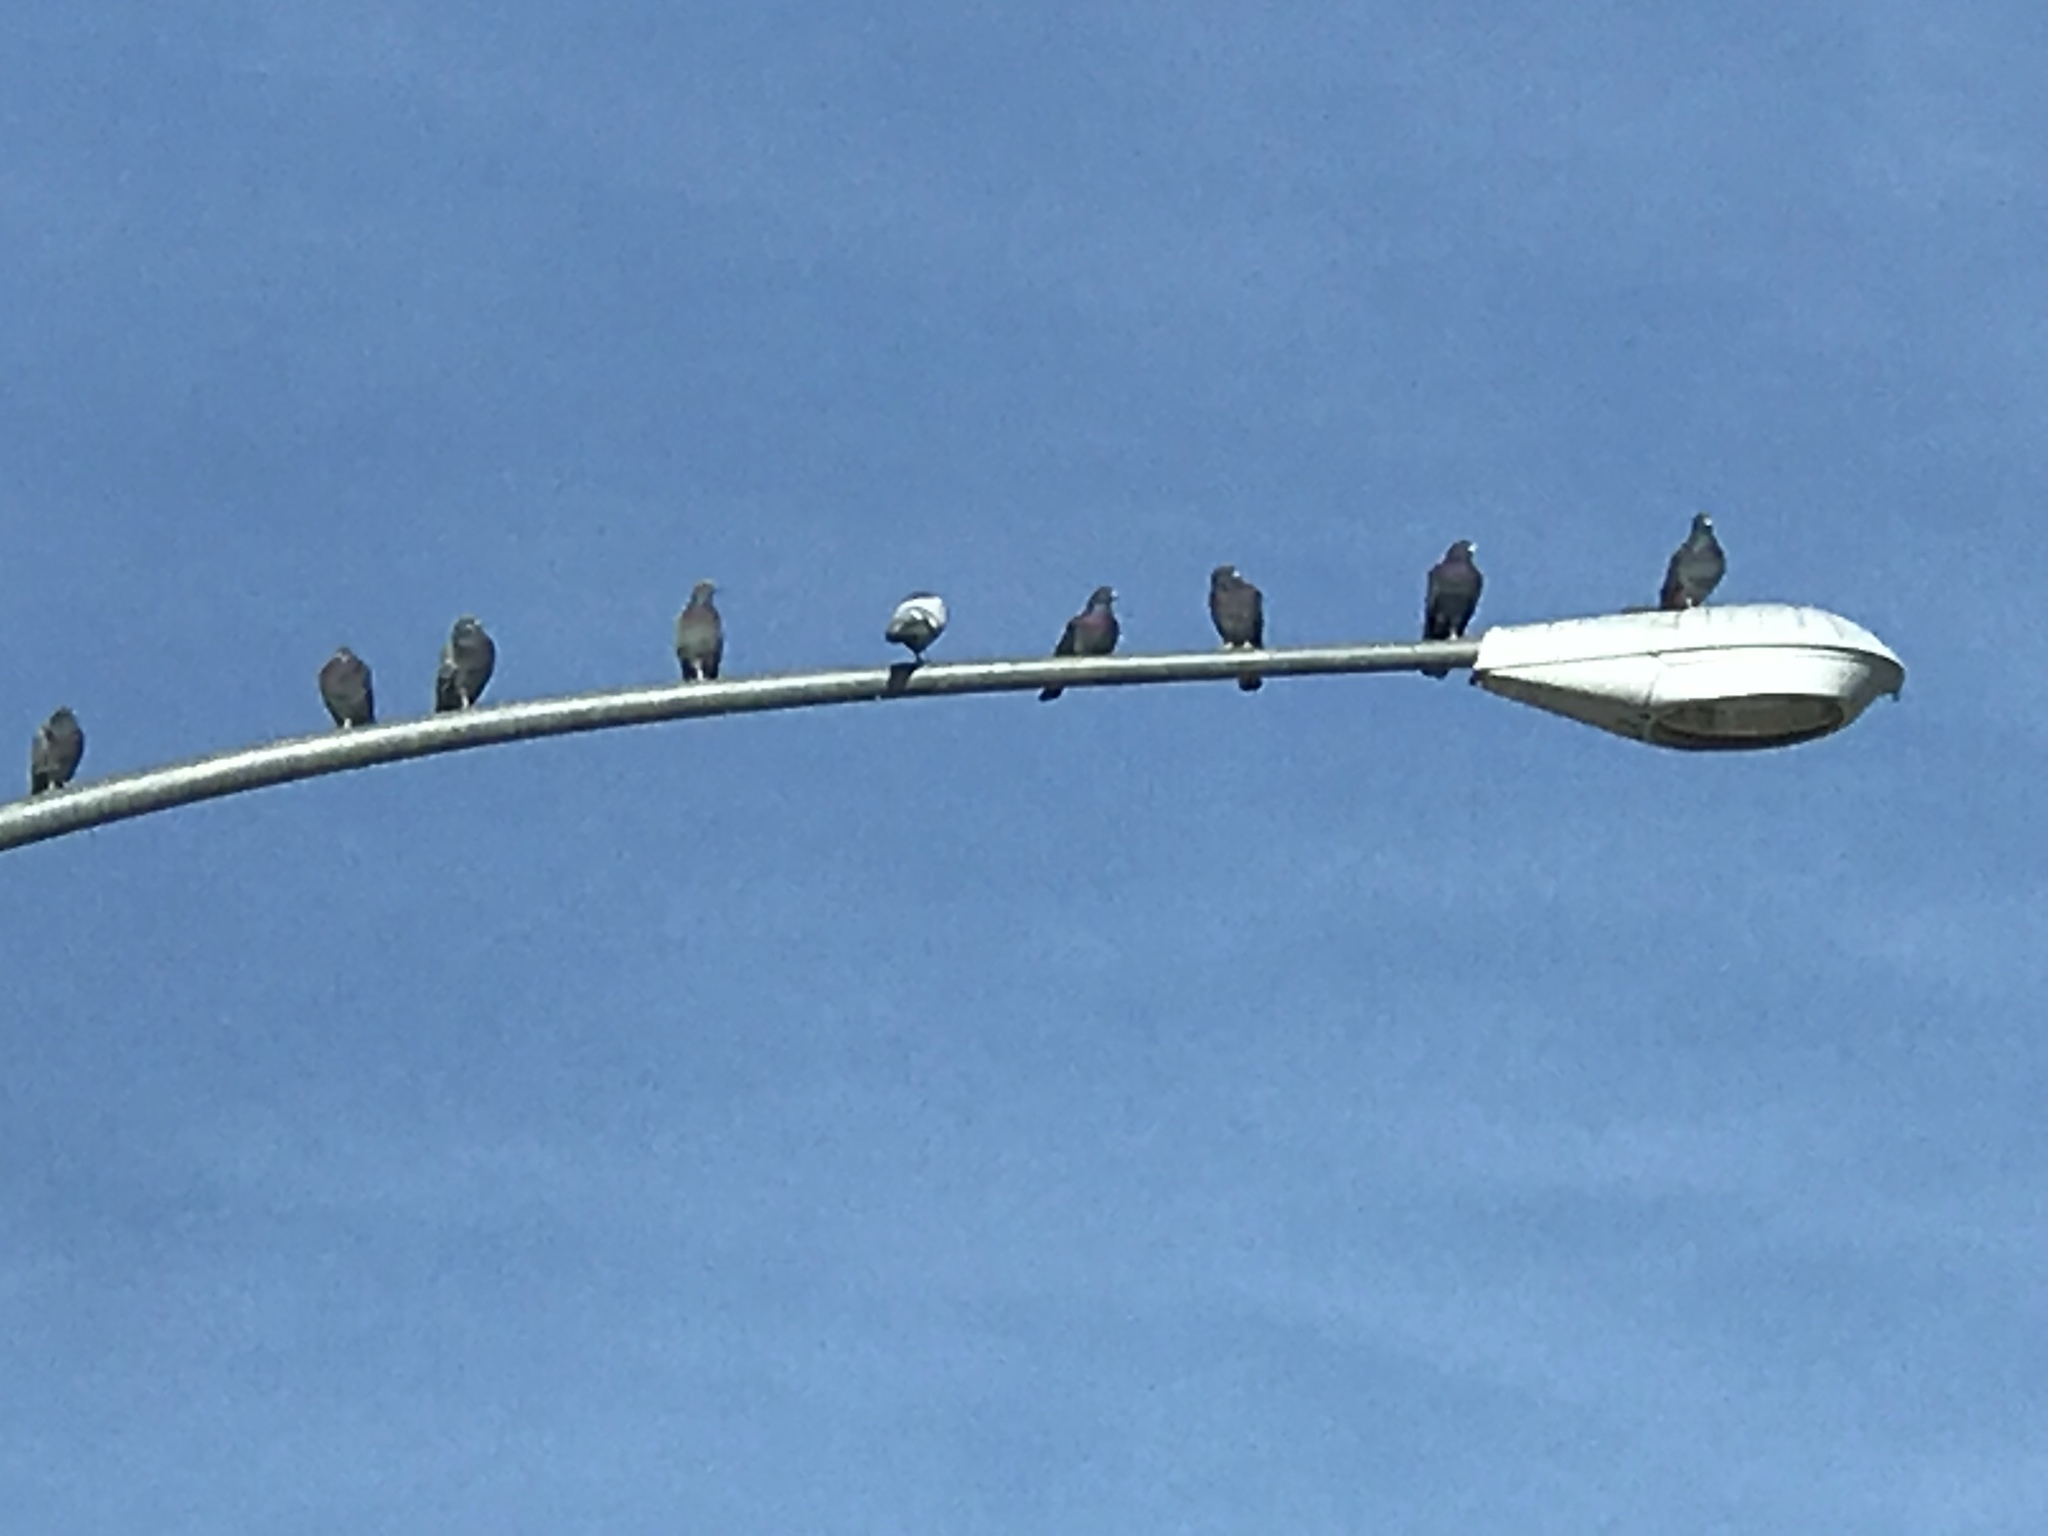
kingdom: Animalia
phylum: Chordata
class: Aves
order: Columbiformes
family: Columbidae
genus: Columba
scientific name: Columba livia
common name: Rock pigeon
